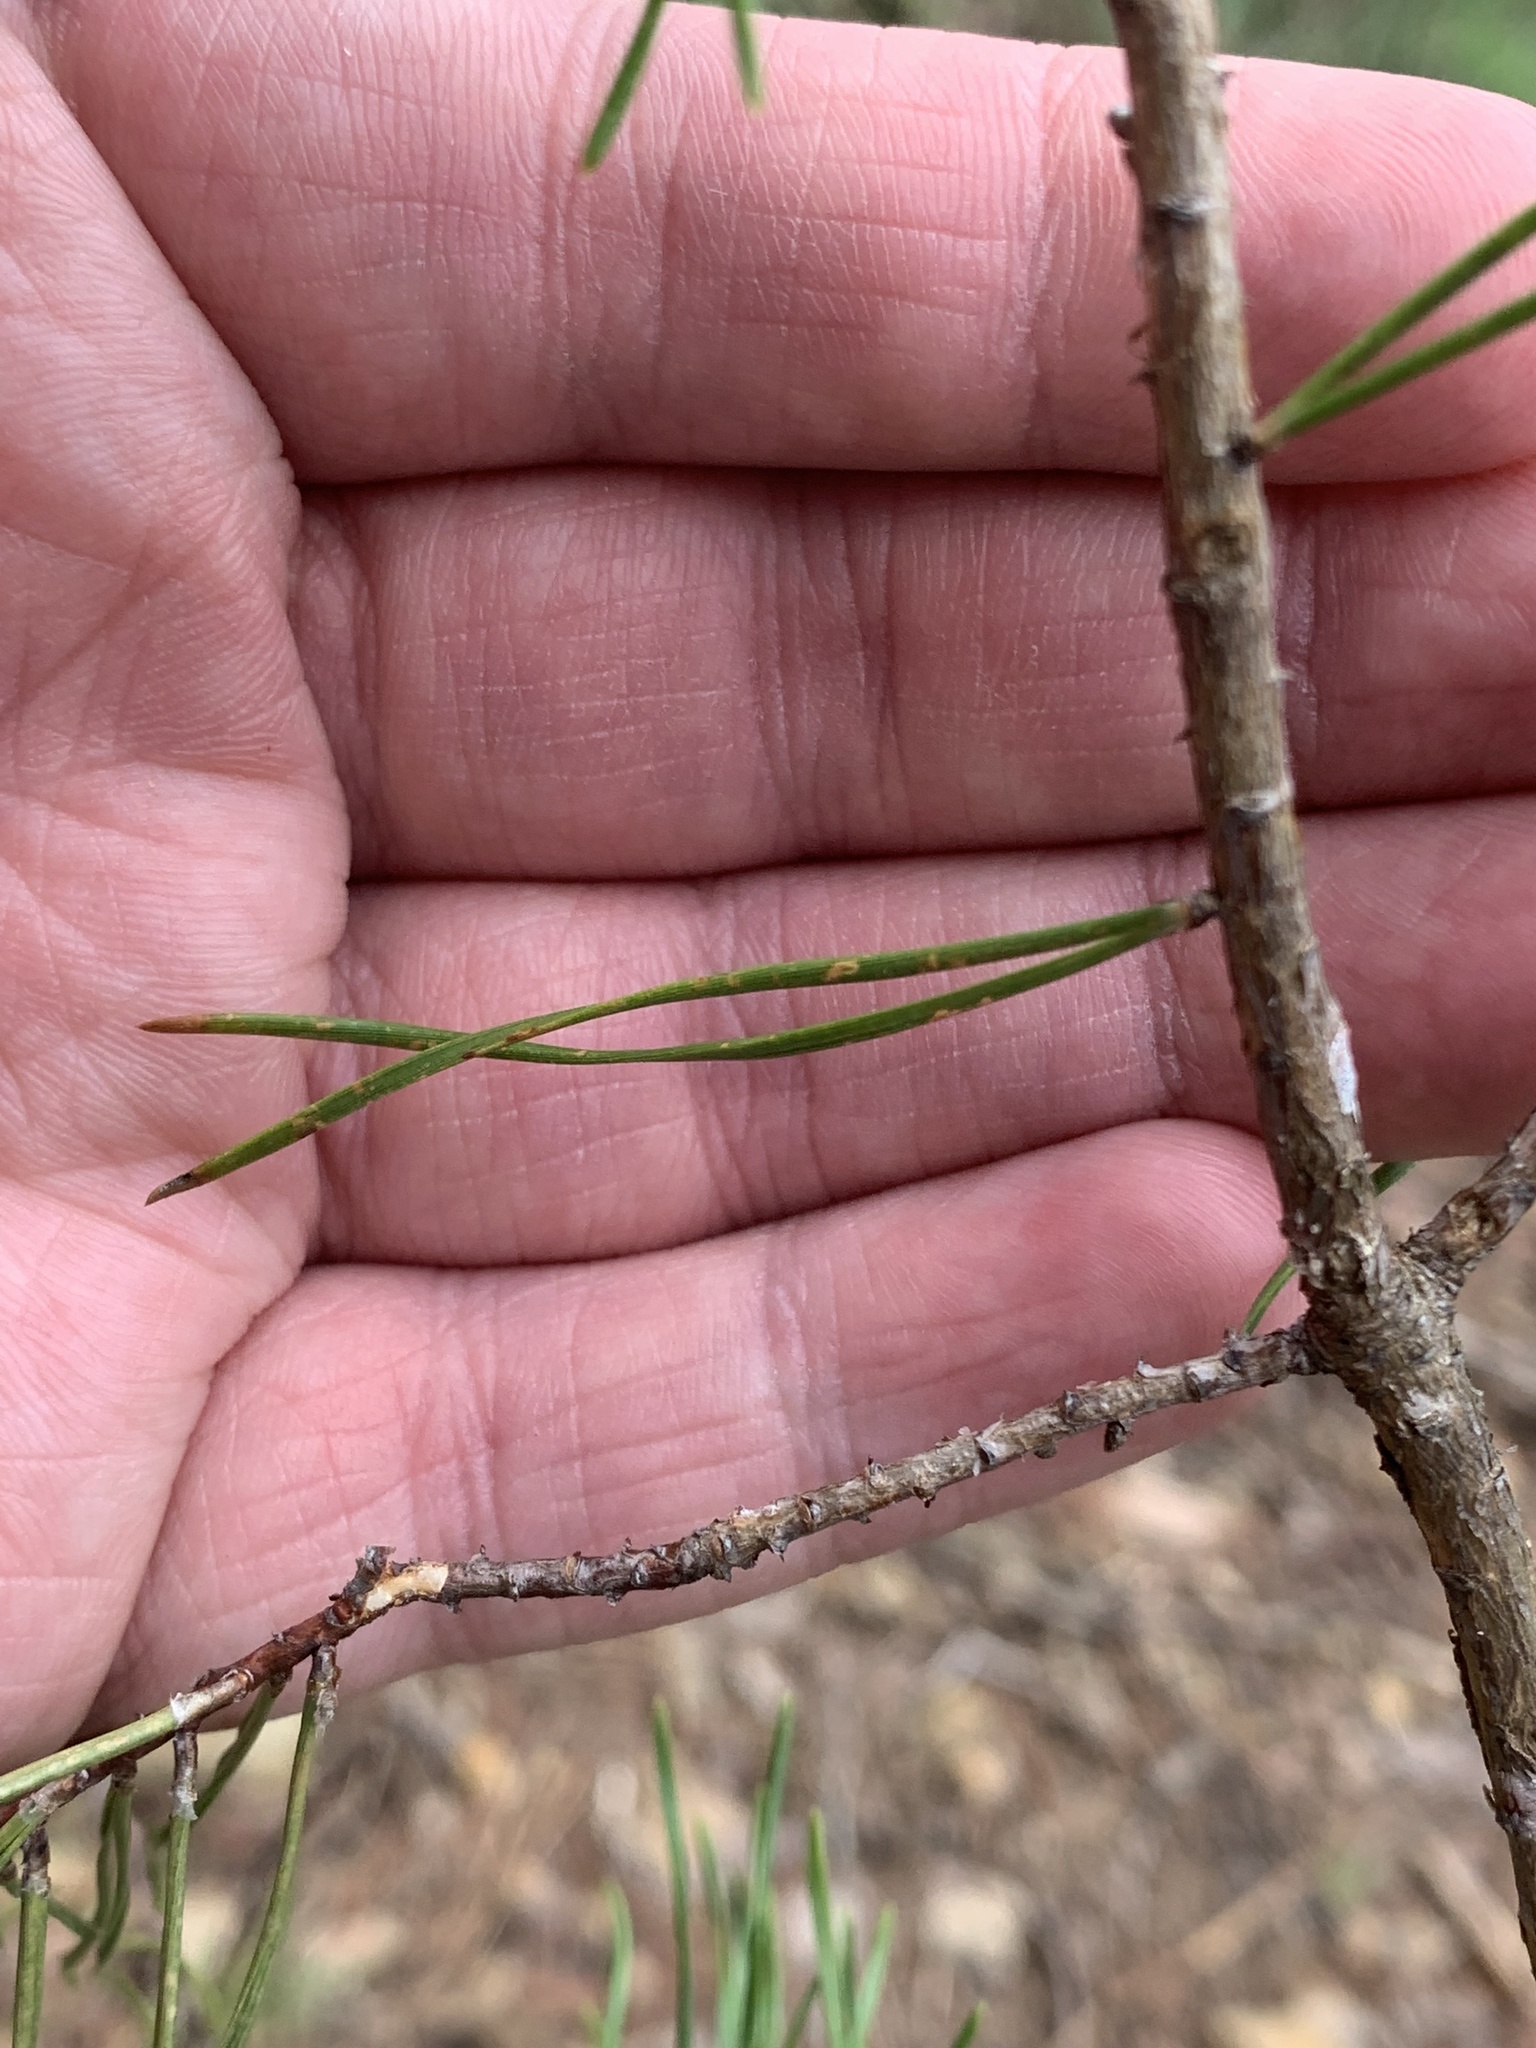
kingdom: Plantae
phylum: Tracheophyta
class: Pinopsida
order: Pinales
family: Pinaceae
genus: Pinus
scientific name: Pinus virginiana
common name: Scrub pine
